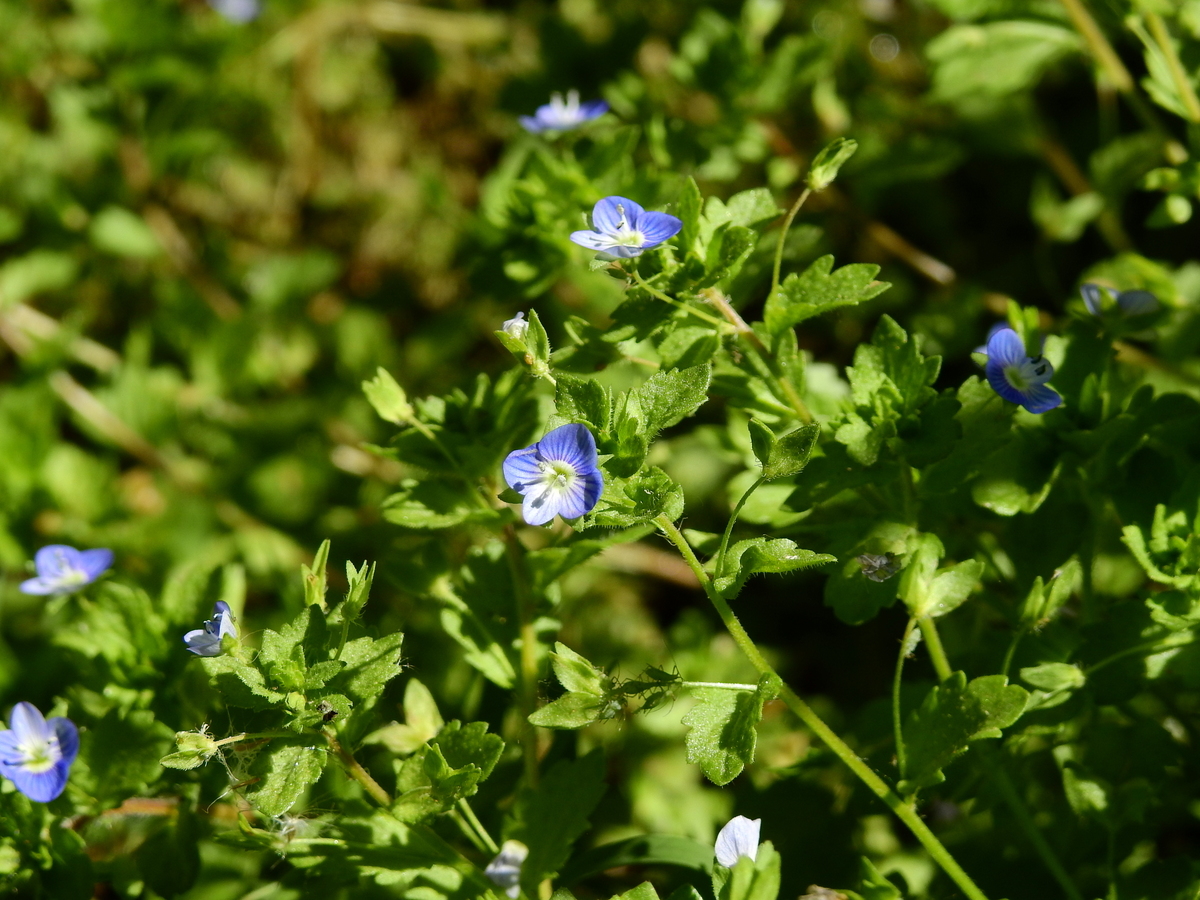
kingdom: Plantae
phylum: Tracheophyta
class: Magnoliopsida
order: Lamiales
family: Plantaginaceae
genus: Veronica
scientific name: Veronica persica
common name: Common field-speedwell
